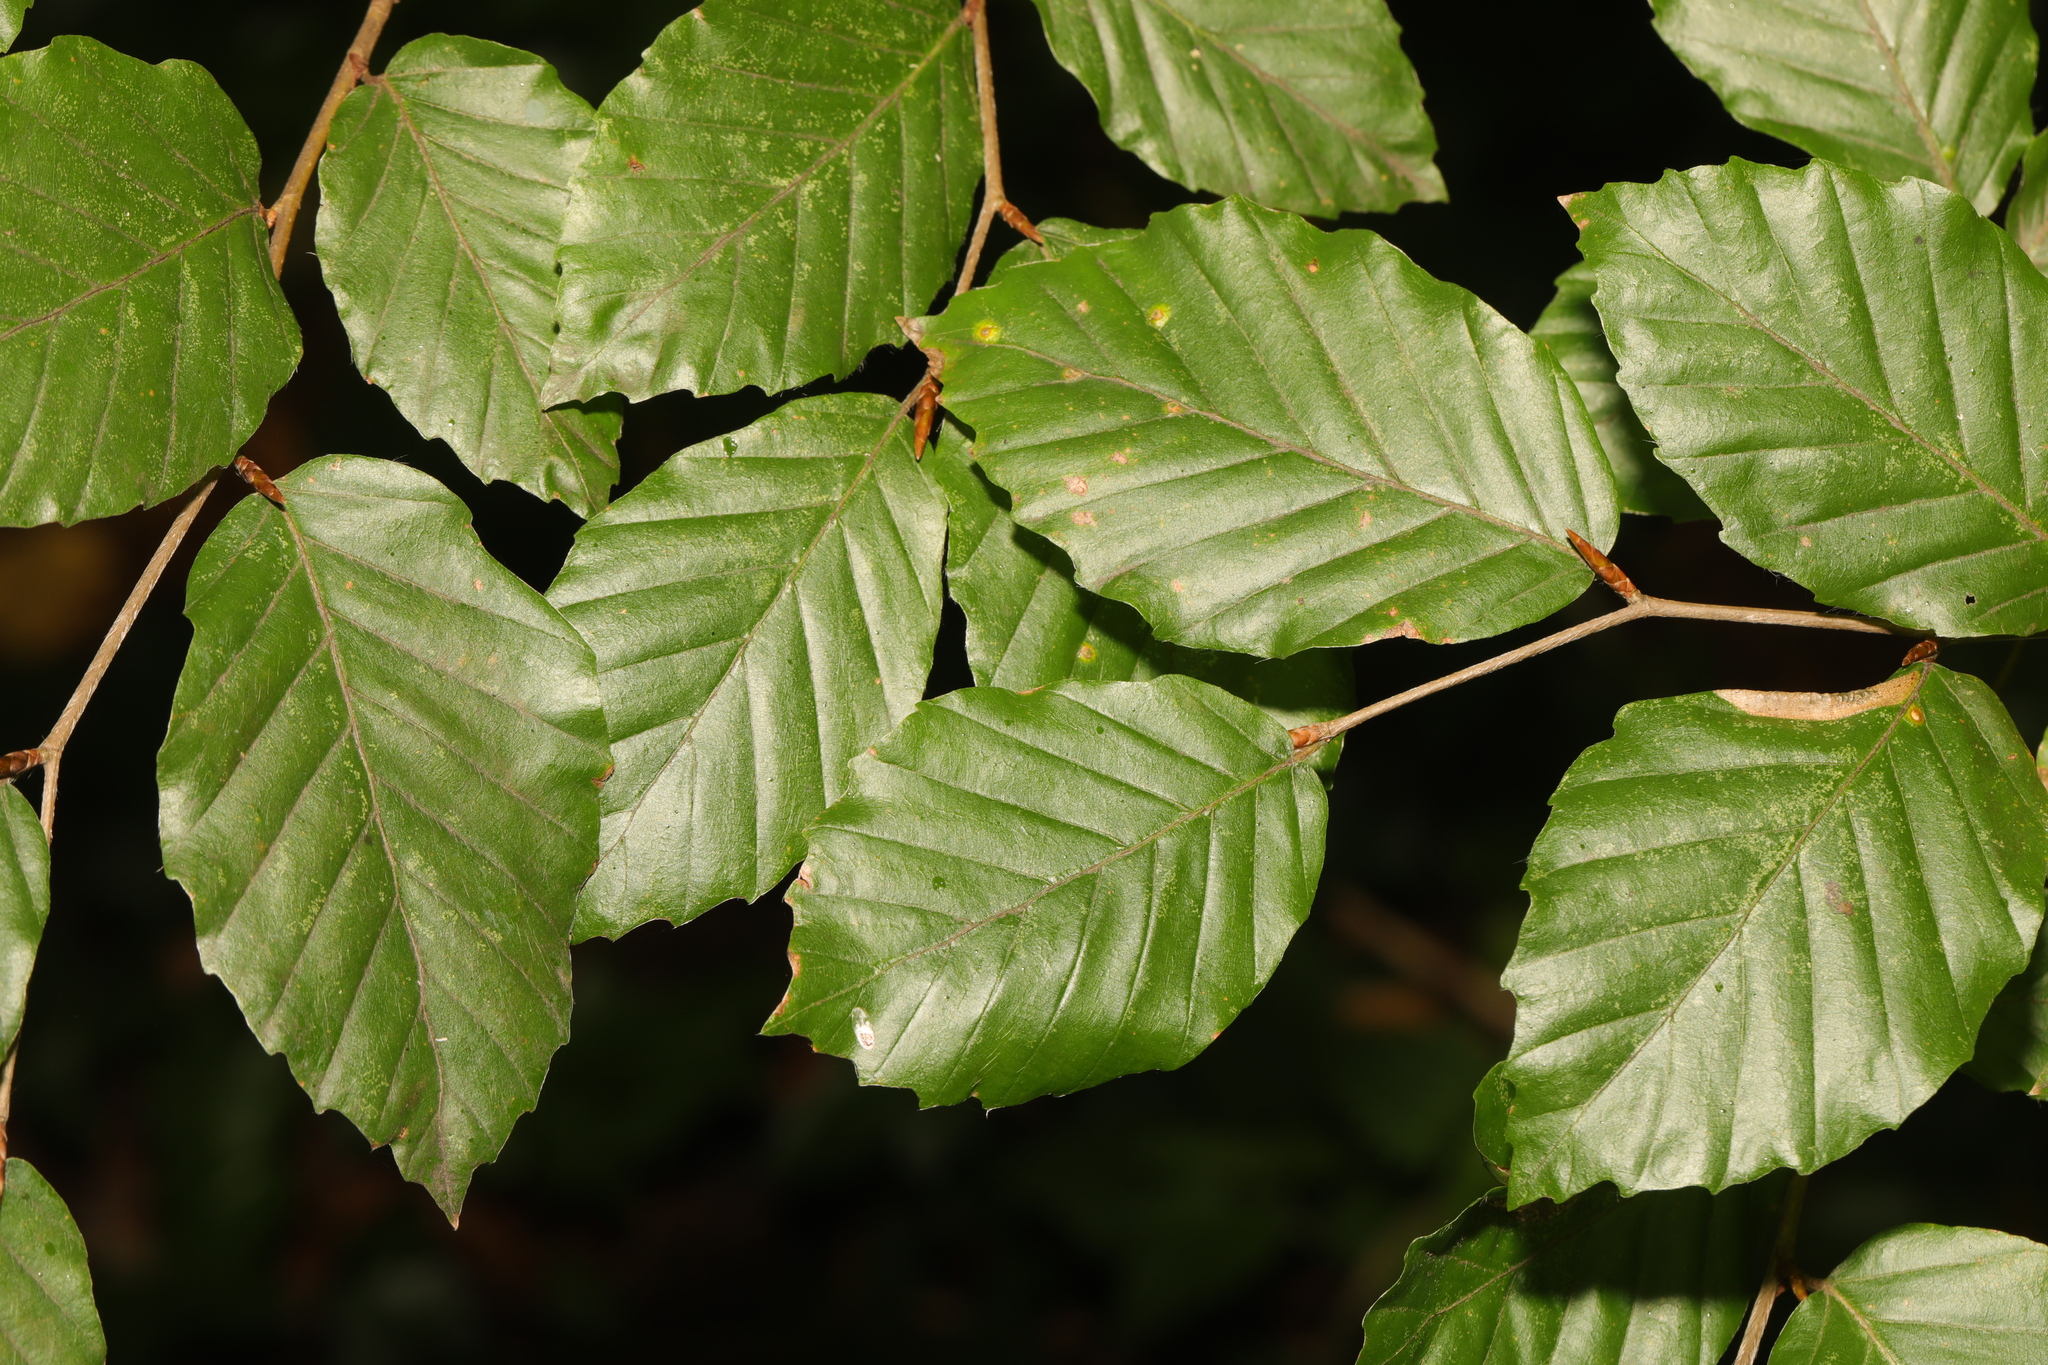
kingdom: Plantae
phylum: Tracheophyta
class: Magnoliopsida
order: Fagales
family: Fagaceae
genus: Fagus
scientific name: Fagus sylvatica
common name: Beech
